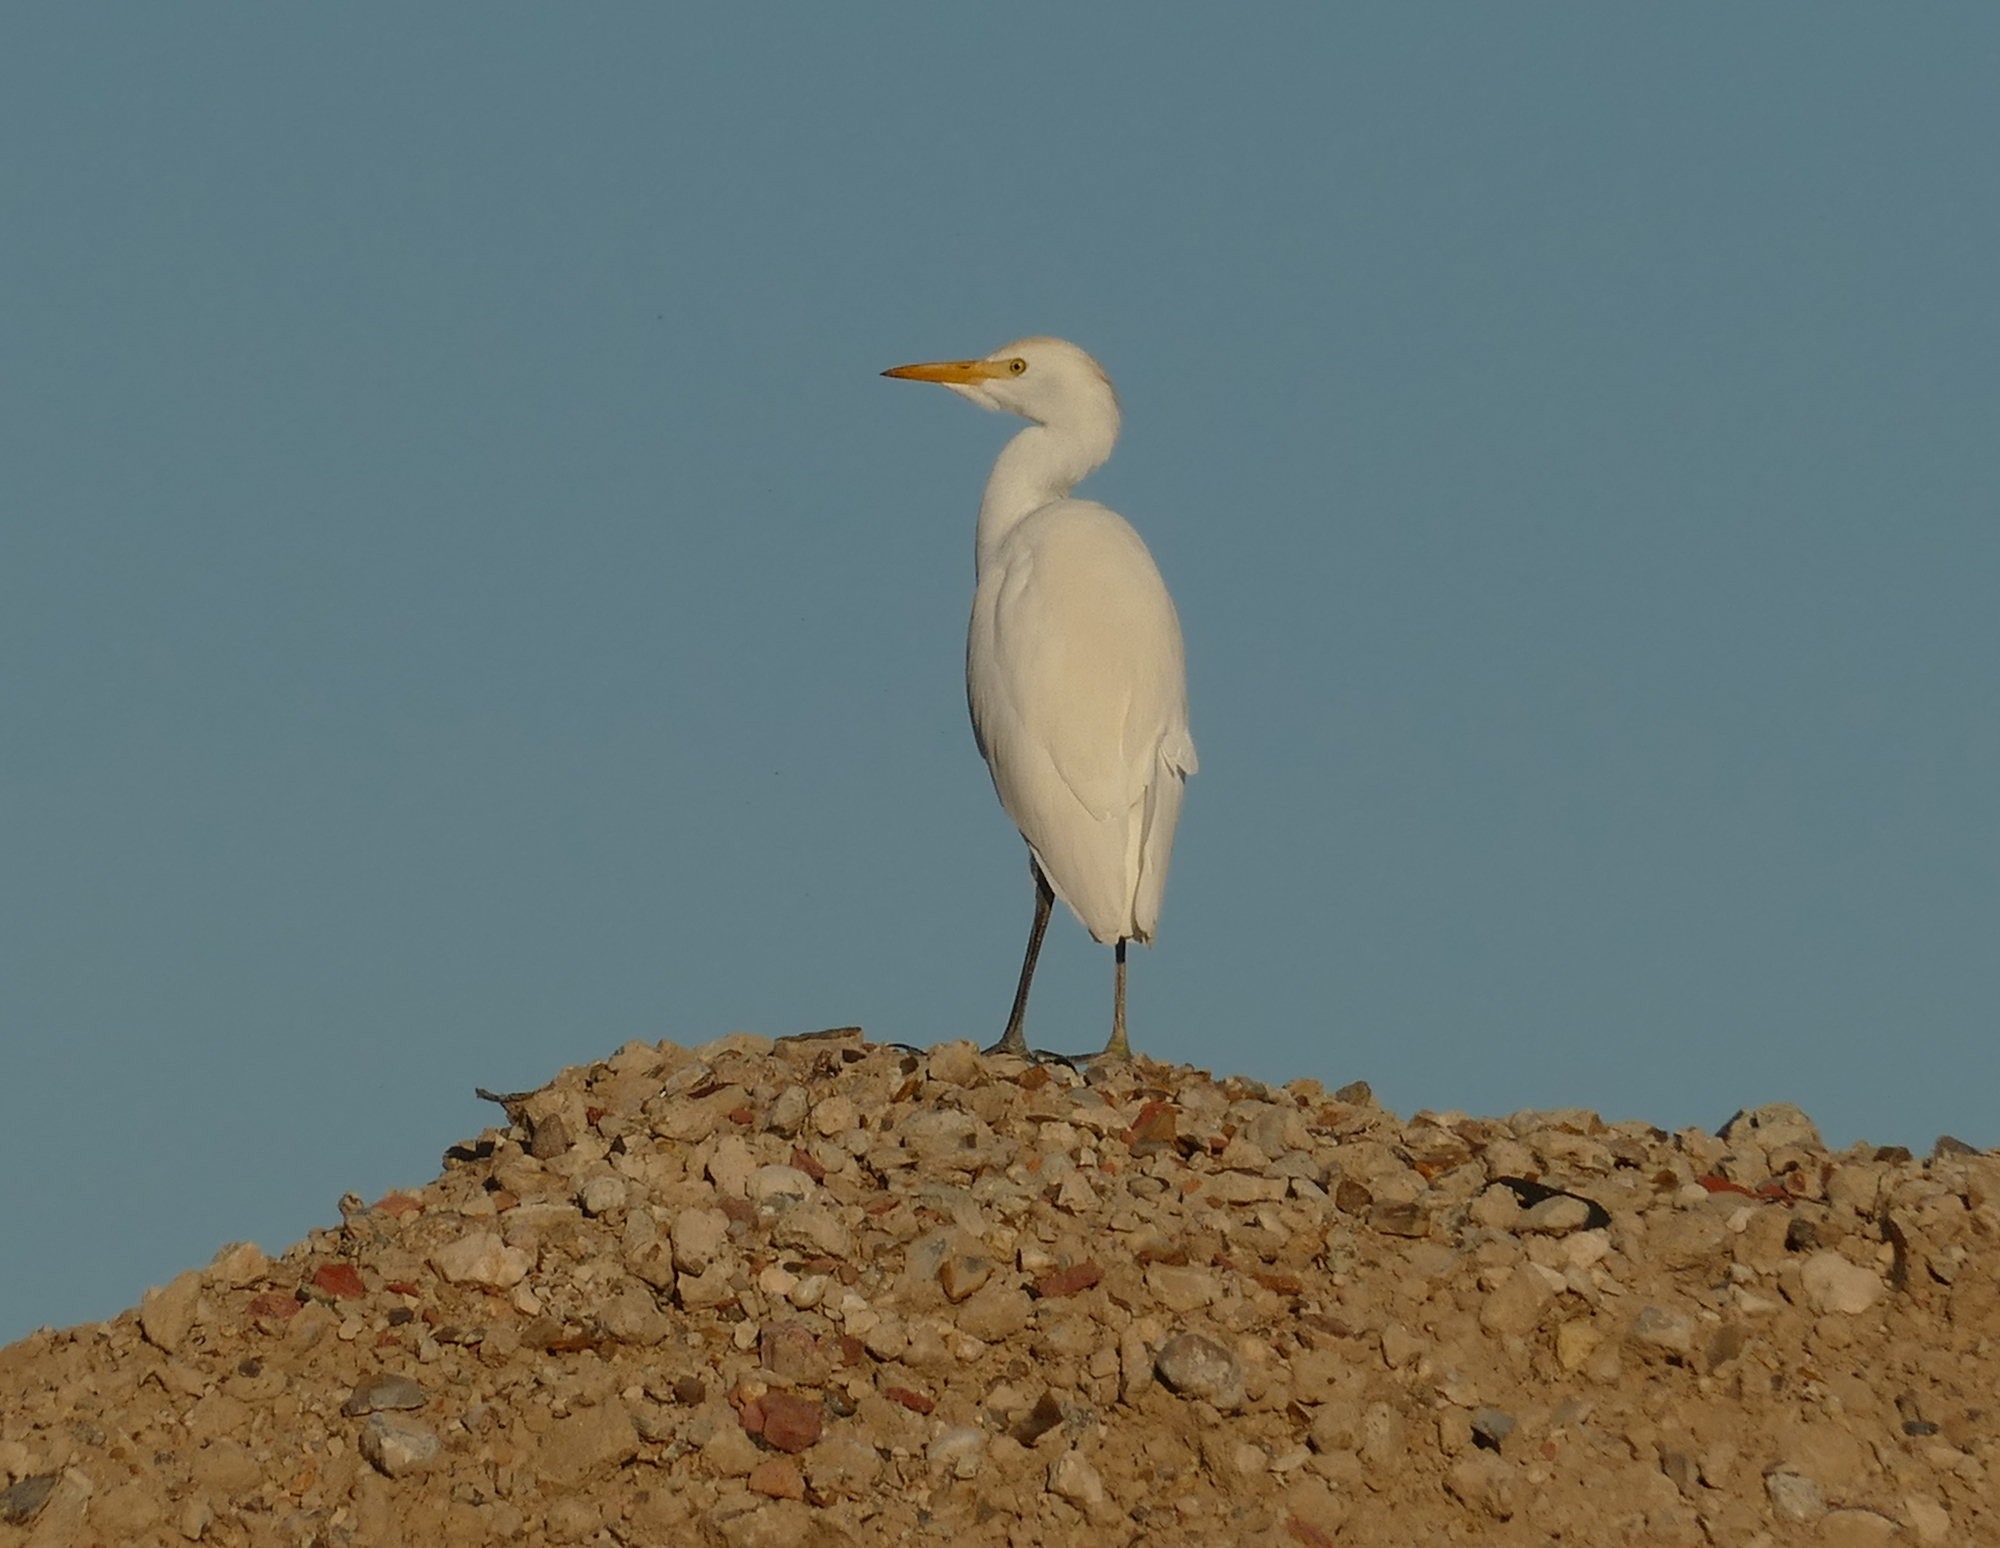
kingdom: Animalia
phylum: Chordata
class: Aves
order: Pelecaniformes
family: Ardeidae
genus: Bubulcus
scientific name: Bubulcus ibis
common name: Cattle egret
